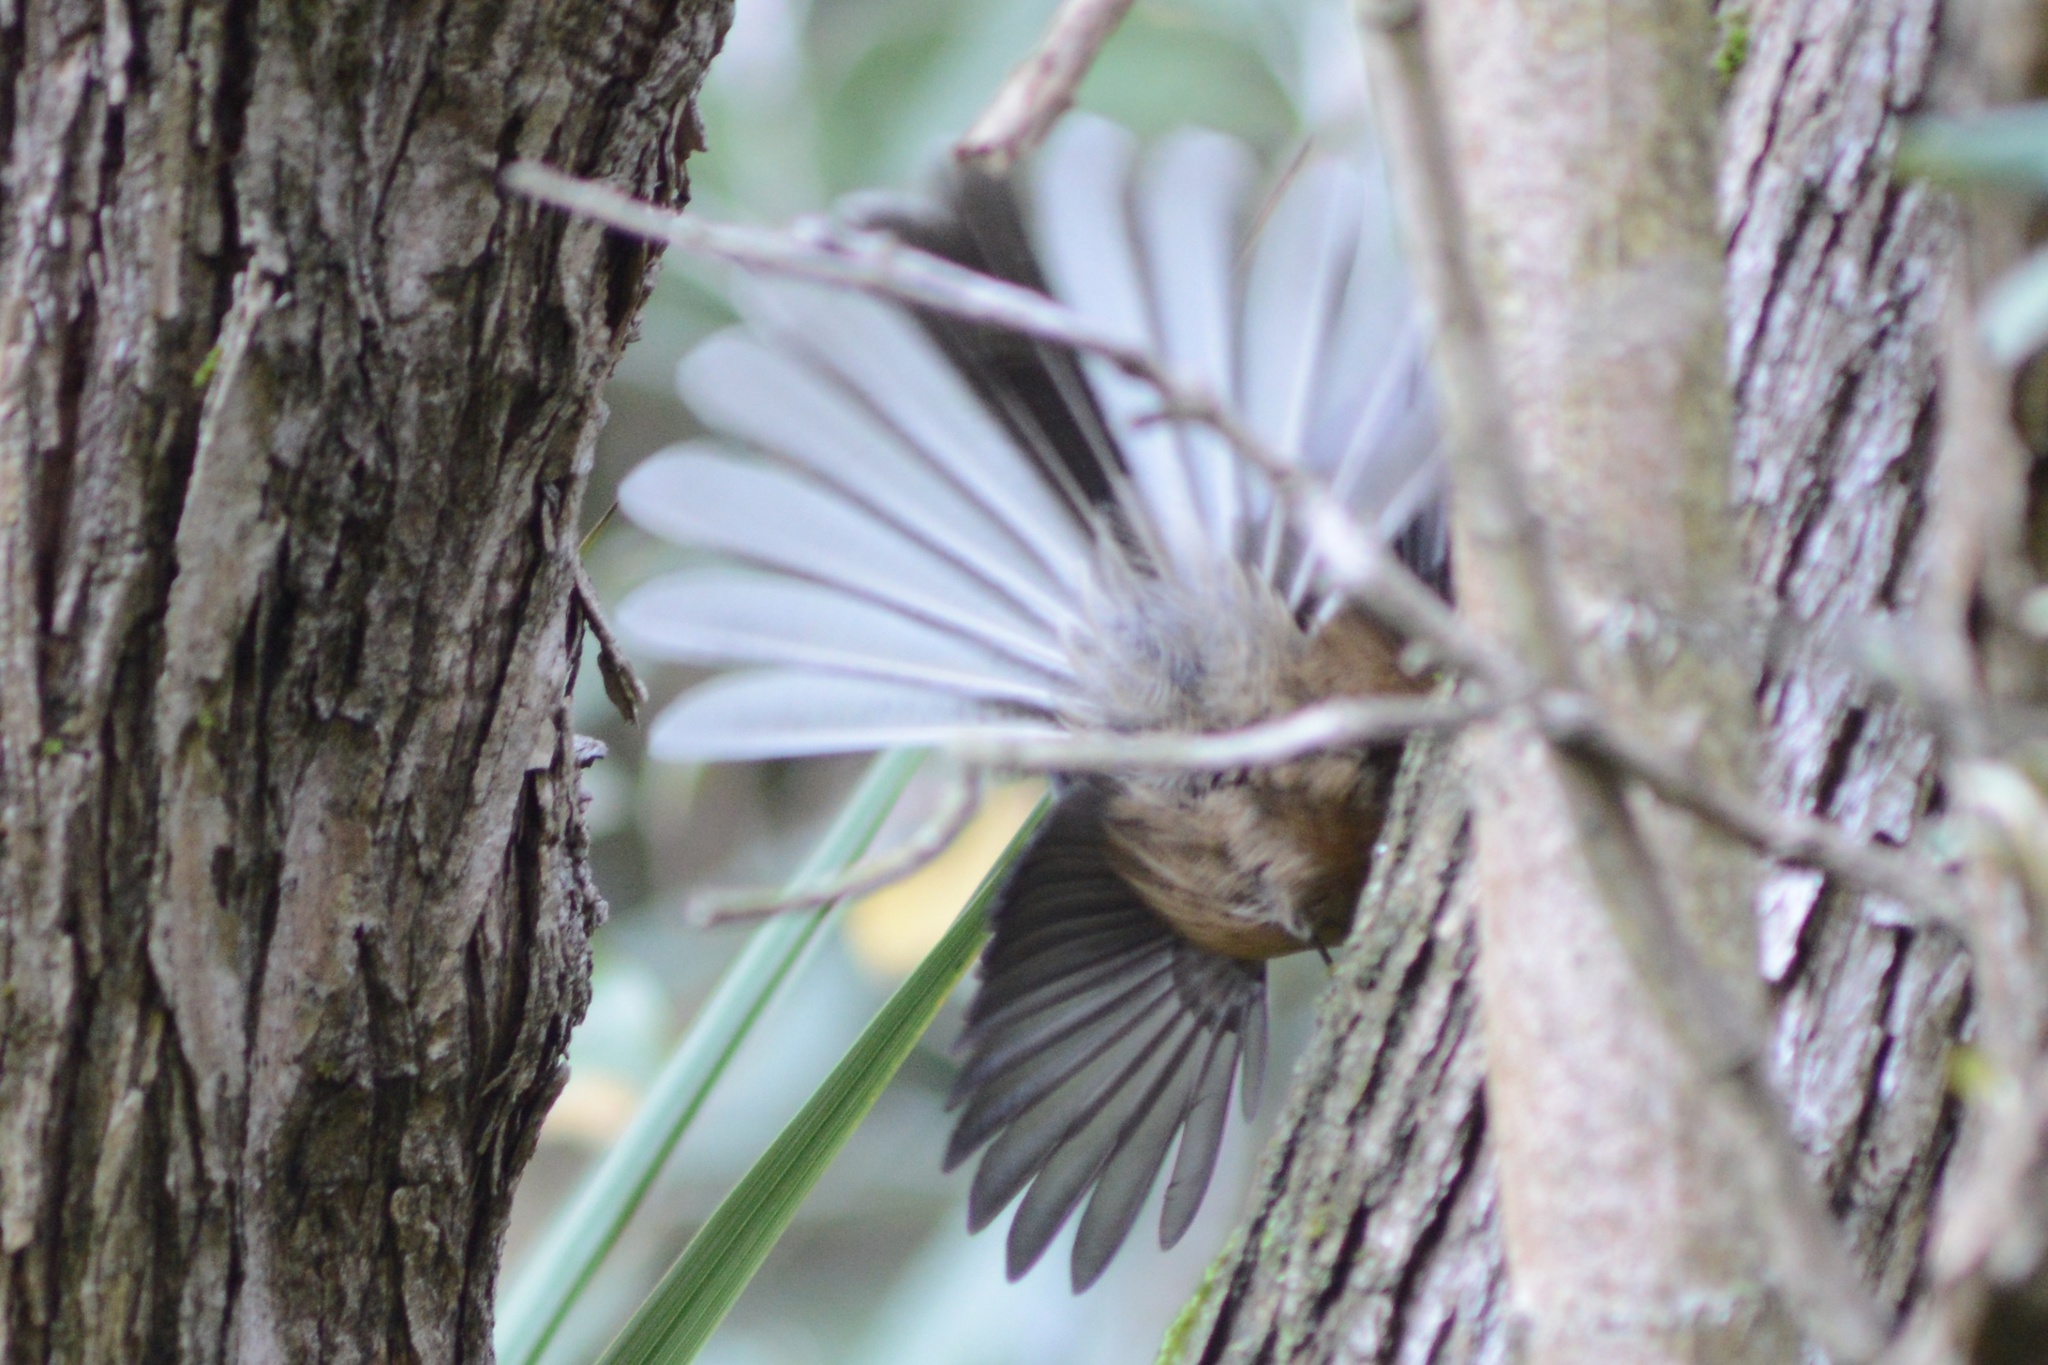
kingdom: Animalia
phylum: Chordata
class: Aves
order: Passeriformes
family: Rhipiduridae
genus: Rhipidura
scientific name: Rhipidura fuliginosa
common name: New zealand fantail
